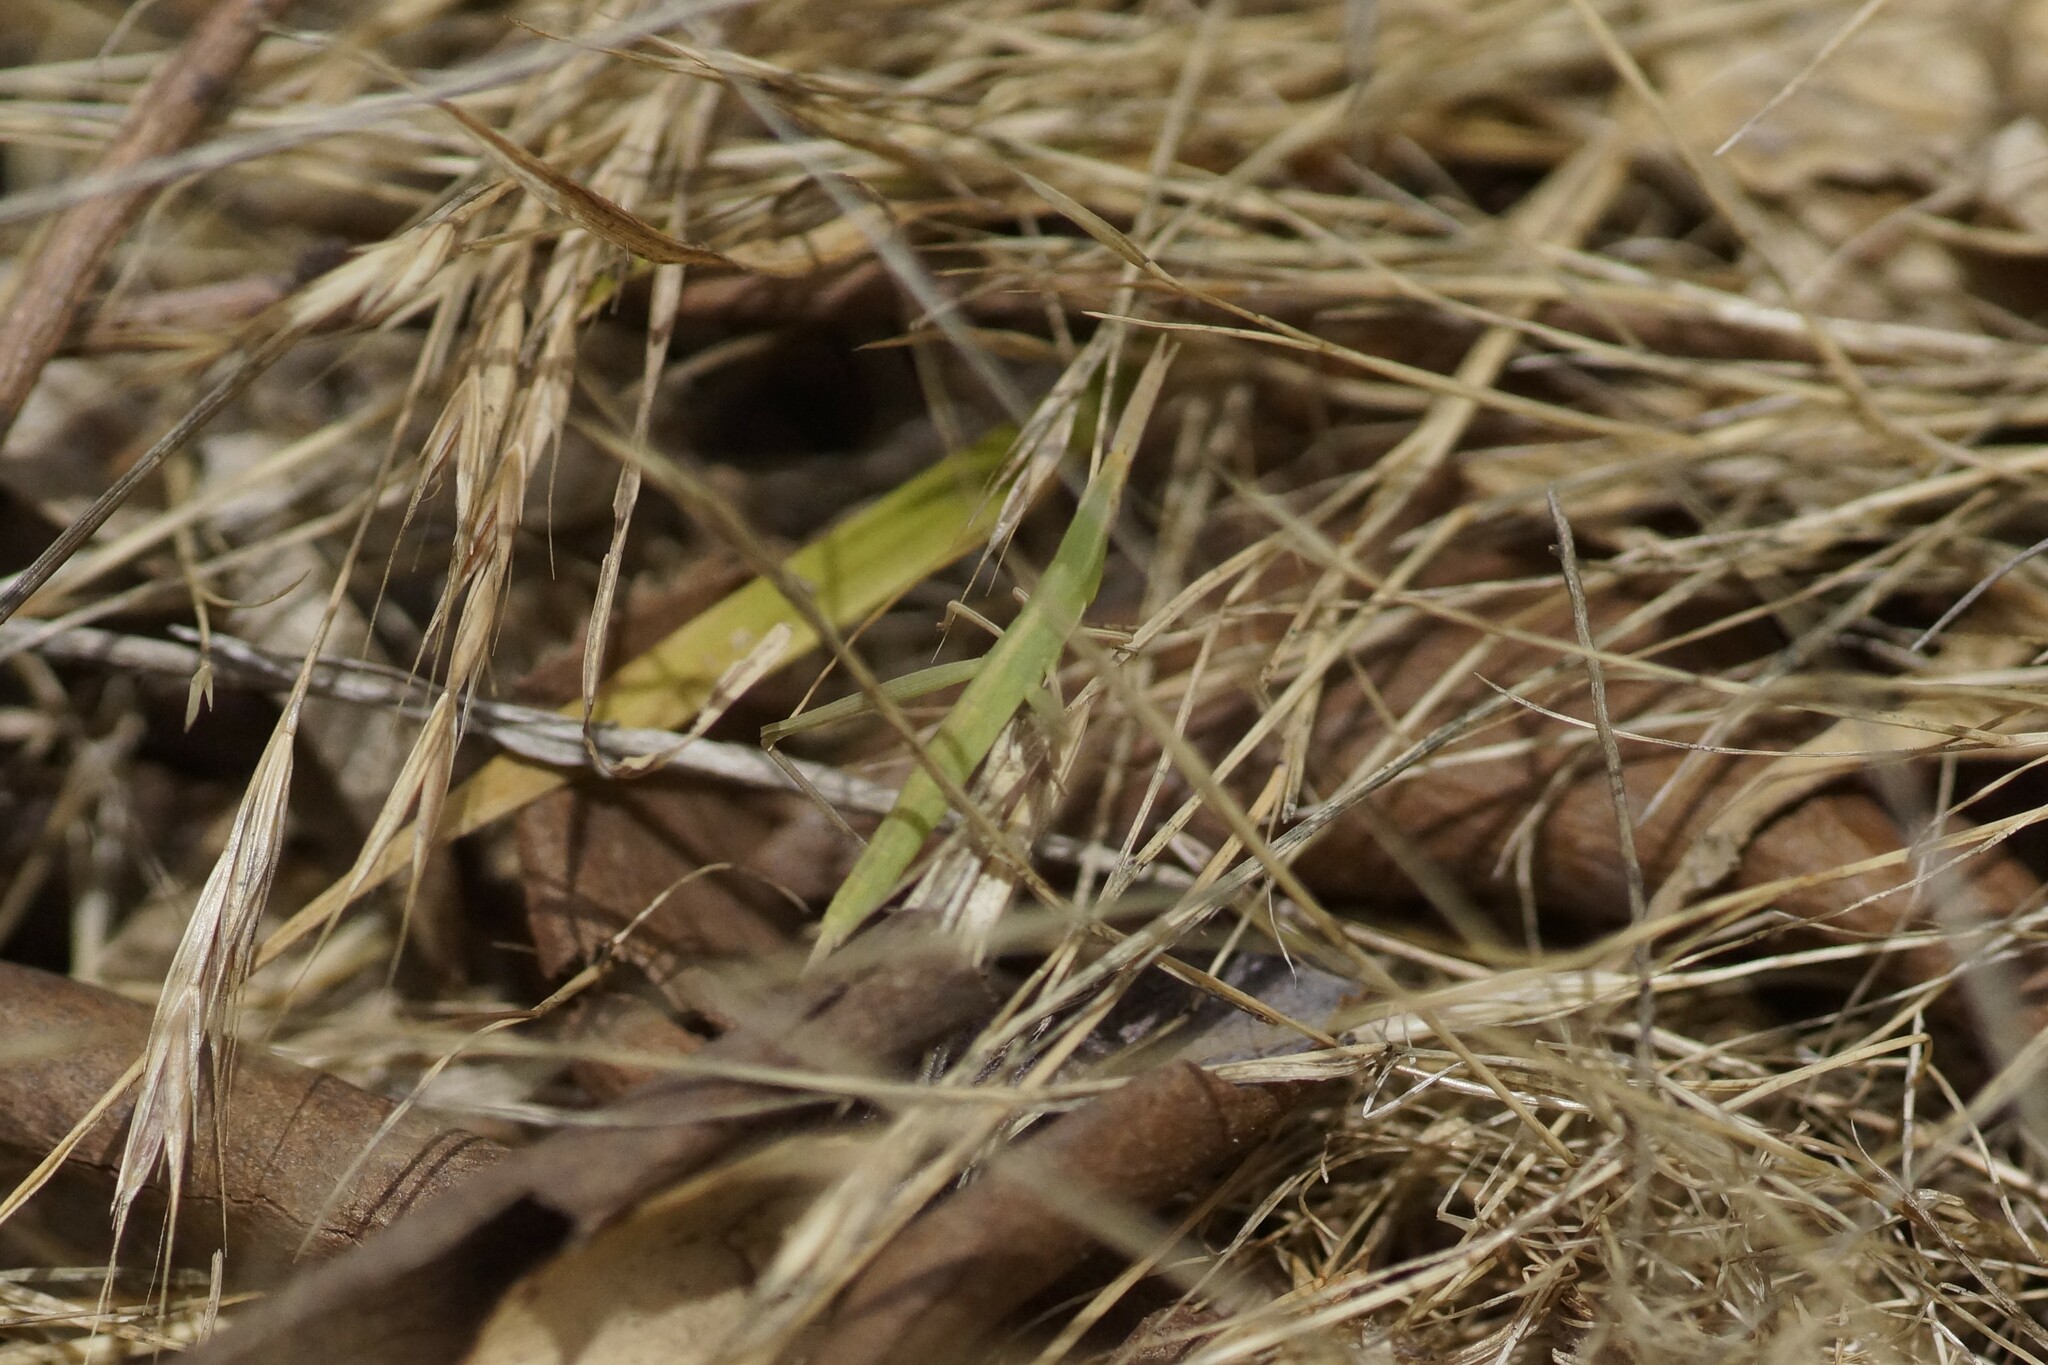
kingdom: Animalia
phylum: Arthropoda
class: Insecta
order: Orthoptera
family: Acrididae
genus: Acrida
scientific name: Acrida conica
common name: Giant green slantface
